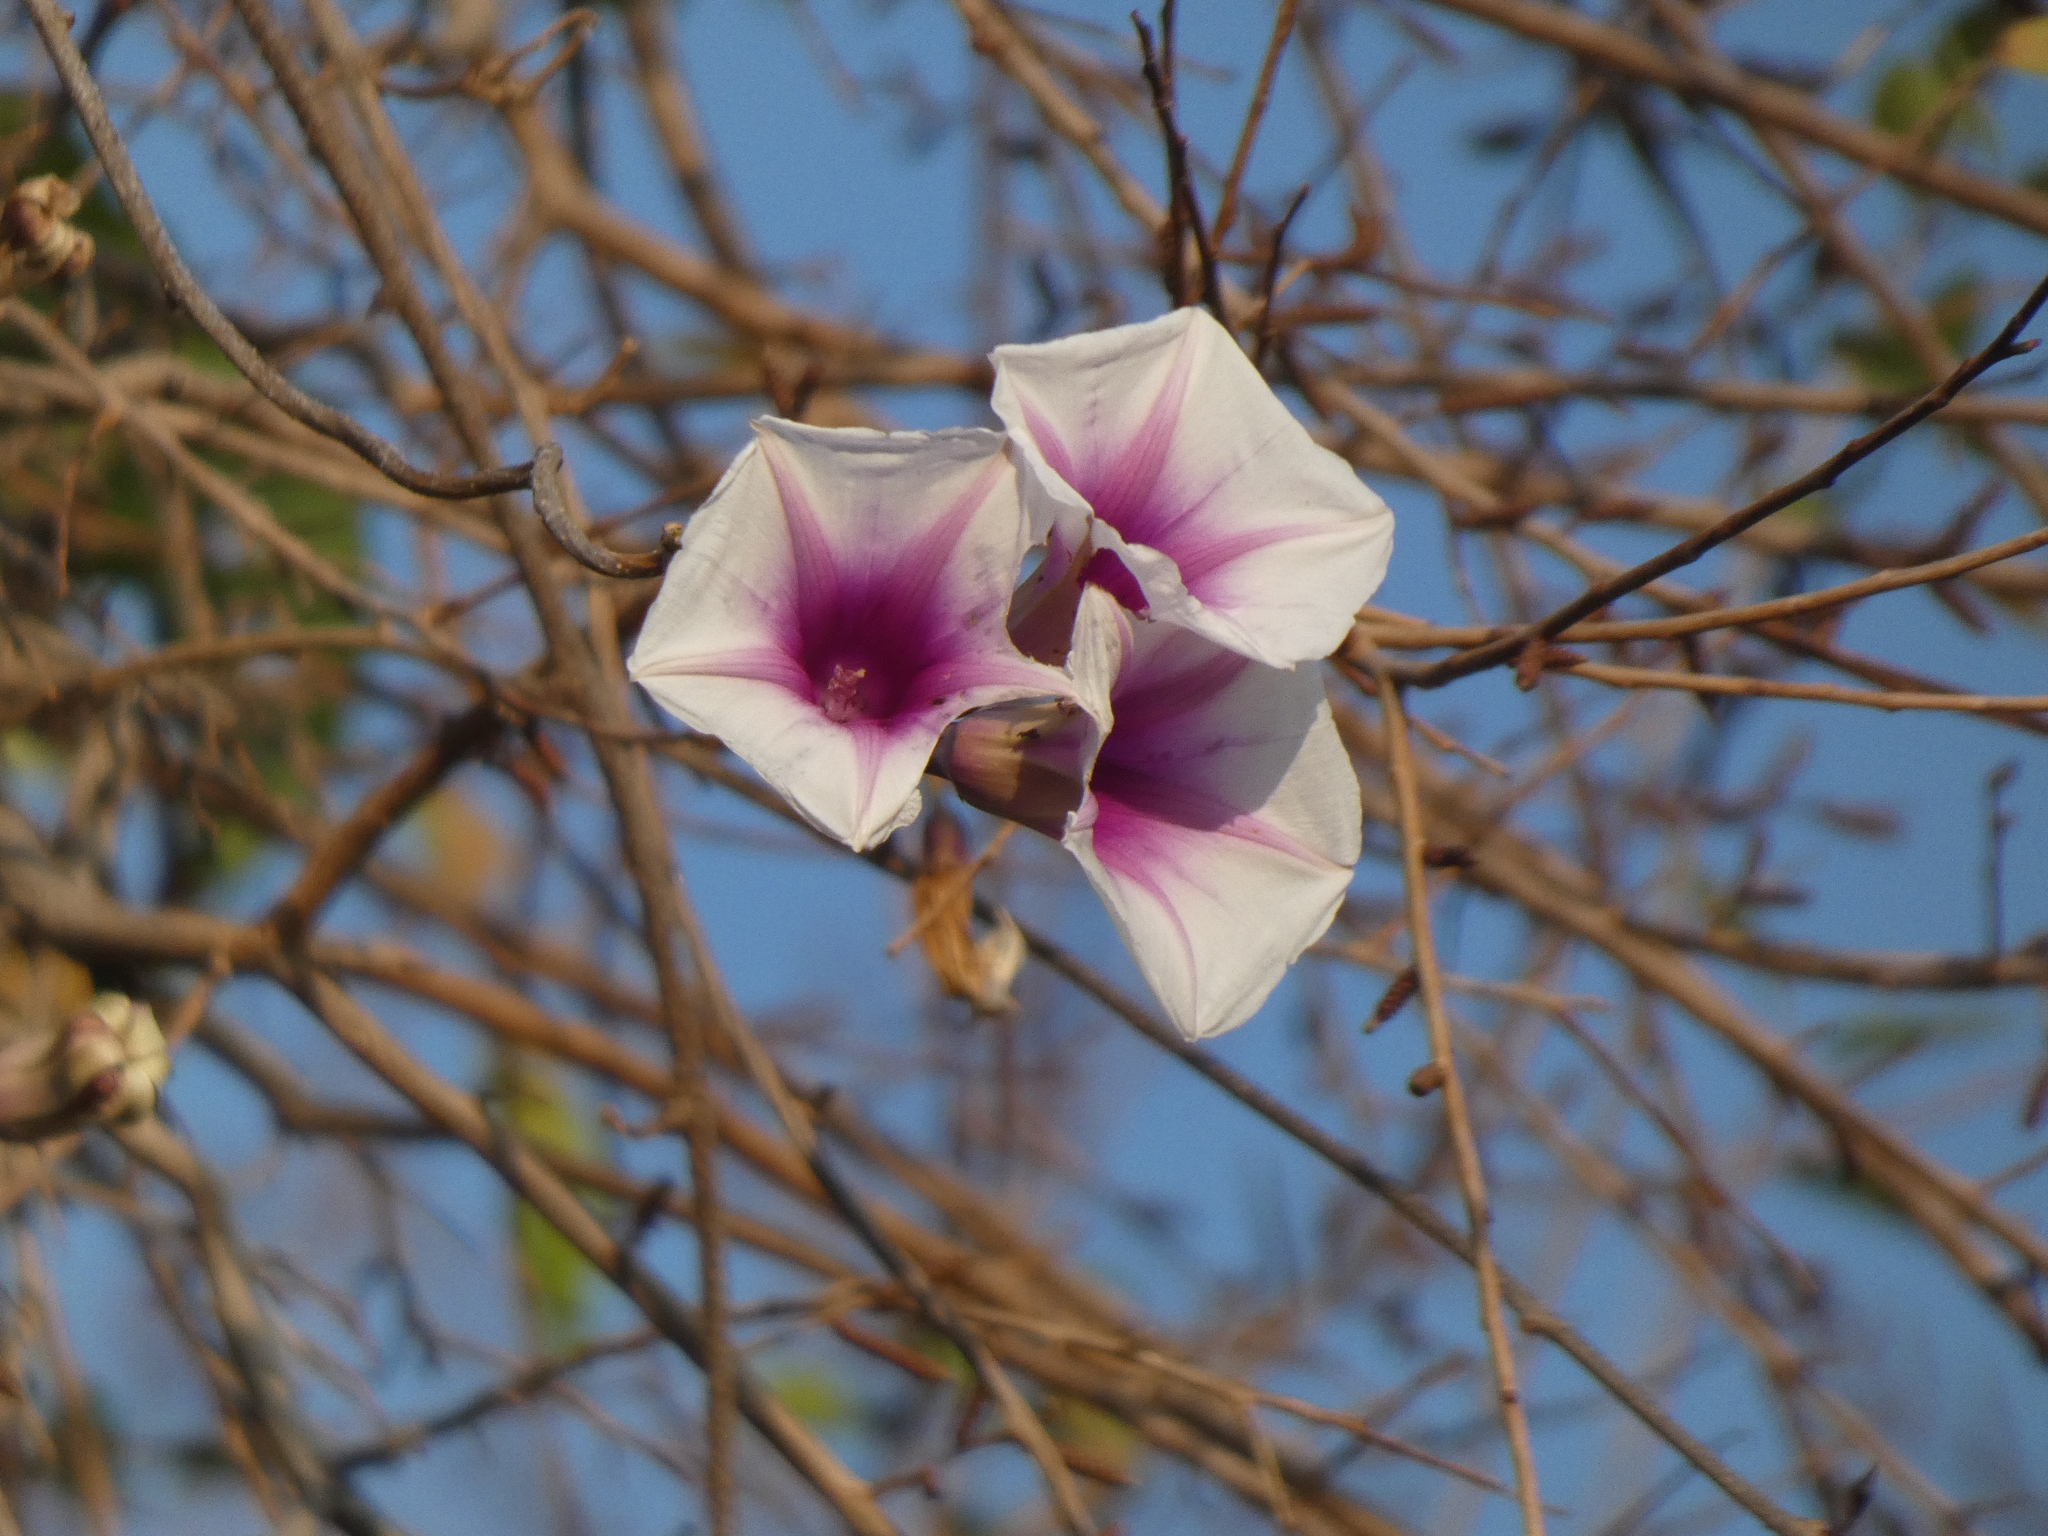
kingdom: Plantae
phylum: Tracheophyta
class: Magnoliopsida
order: Solanales
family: Convolvulaceae
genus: Ipomoea
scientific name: Ipomoea shirambensis
